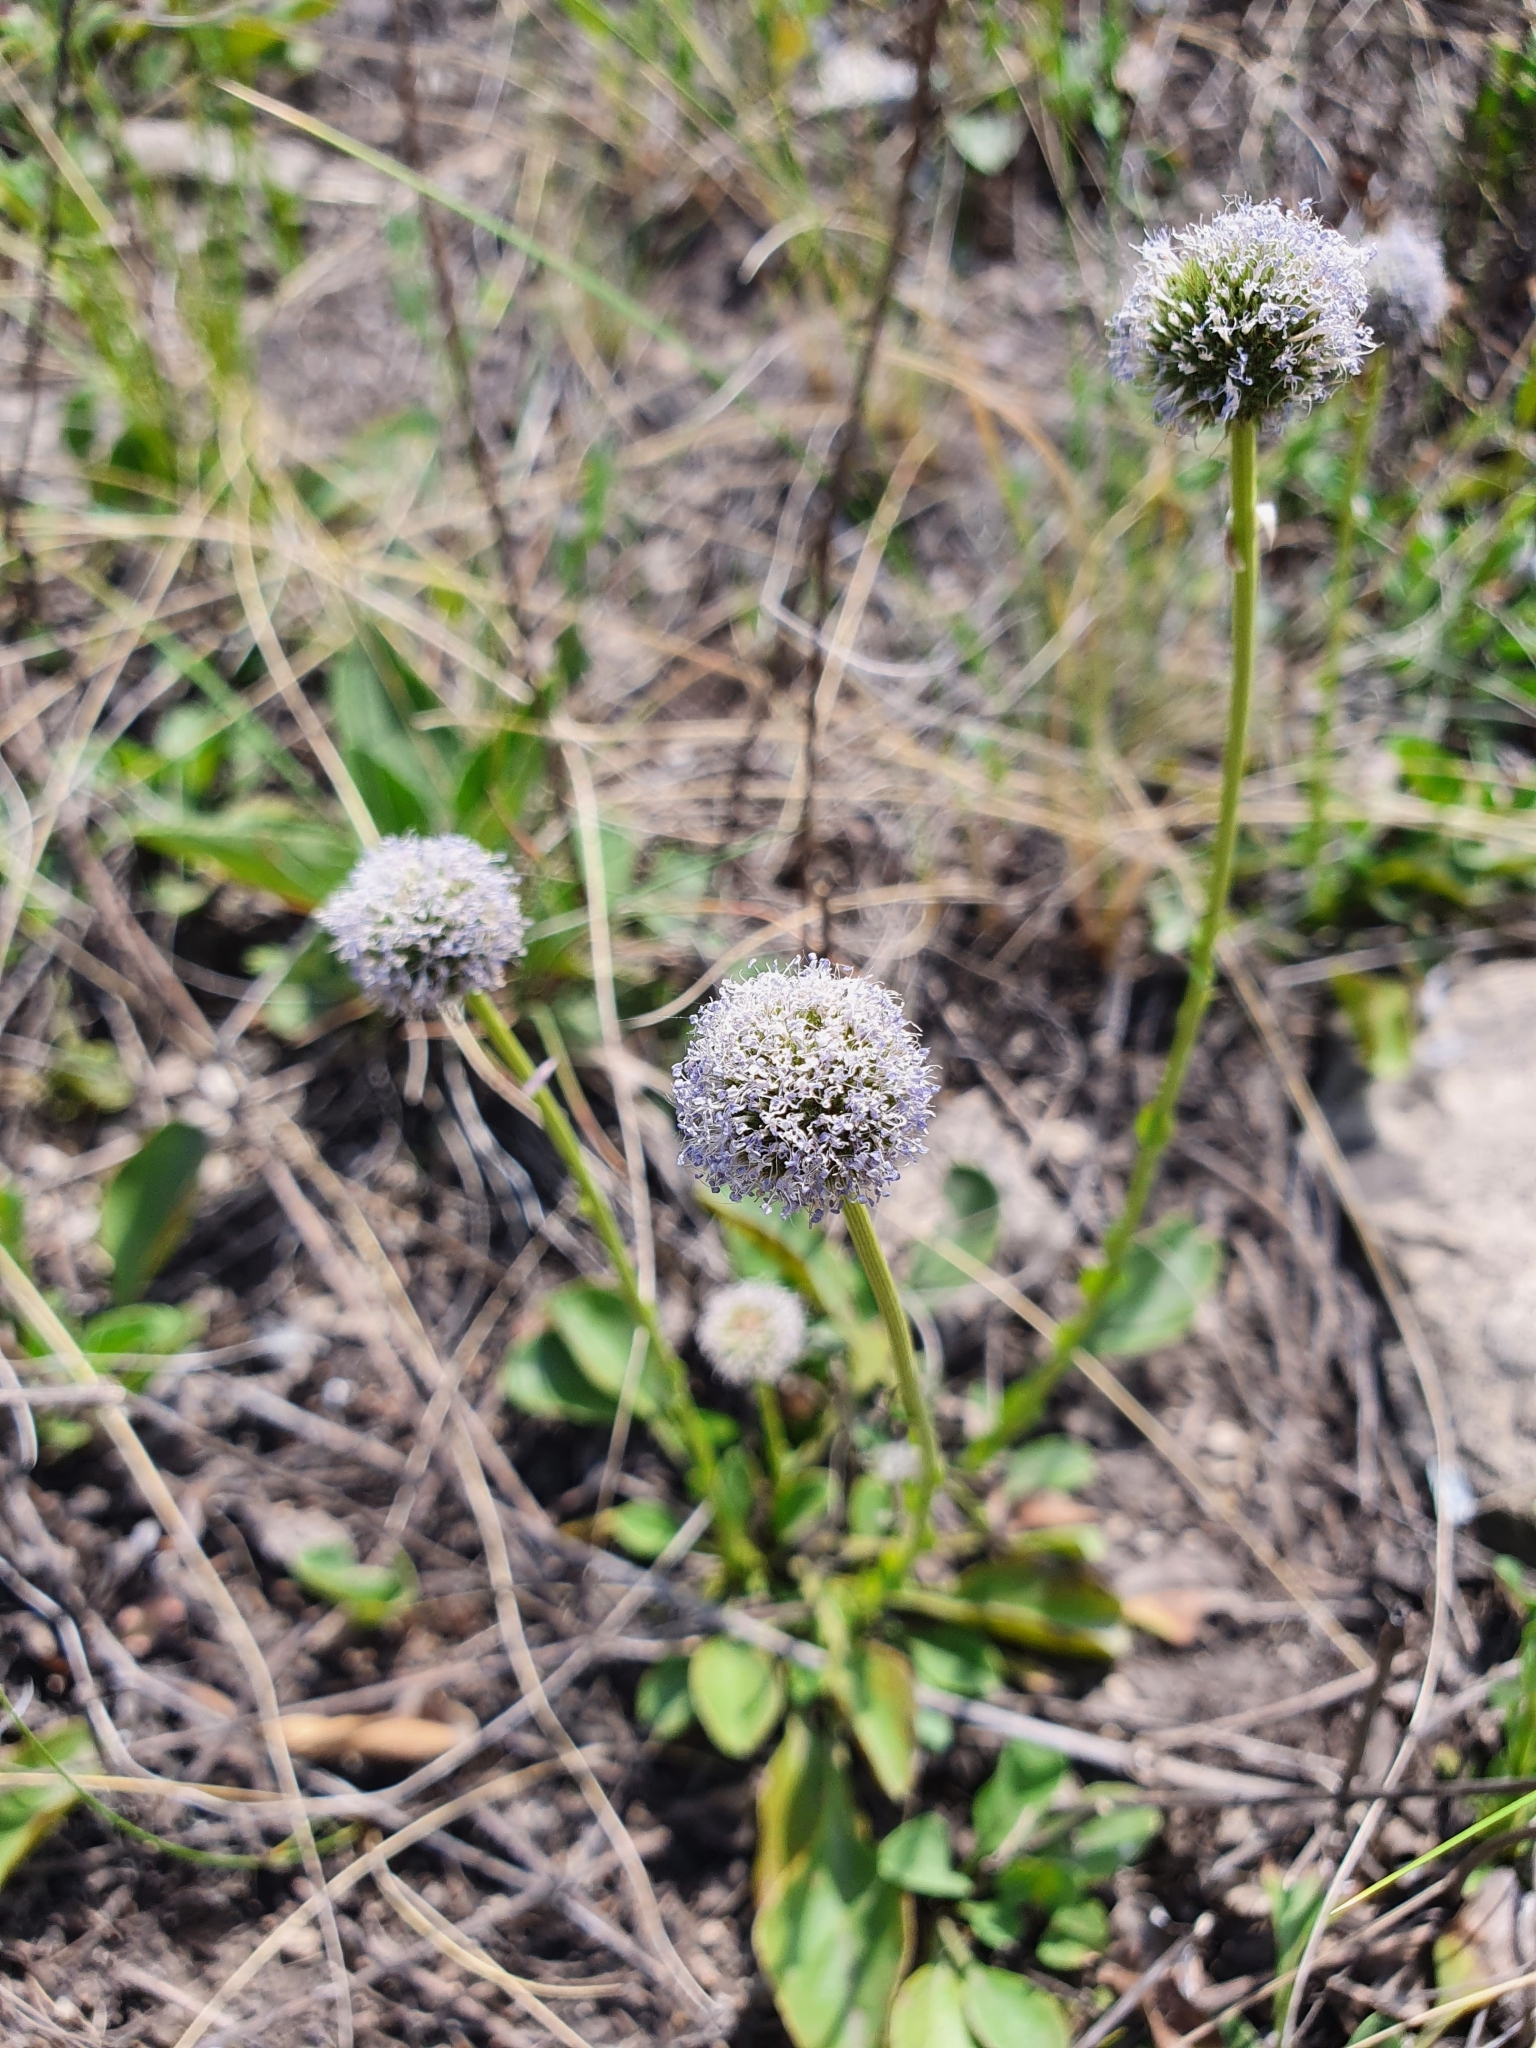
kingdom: Plantae
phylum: Tracheophyta
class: Magnoliopsida
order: Lamiales
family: Plantaginaceae
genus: Globularia
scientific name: Globularia bisnagarica
